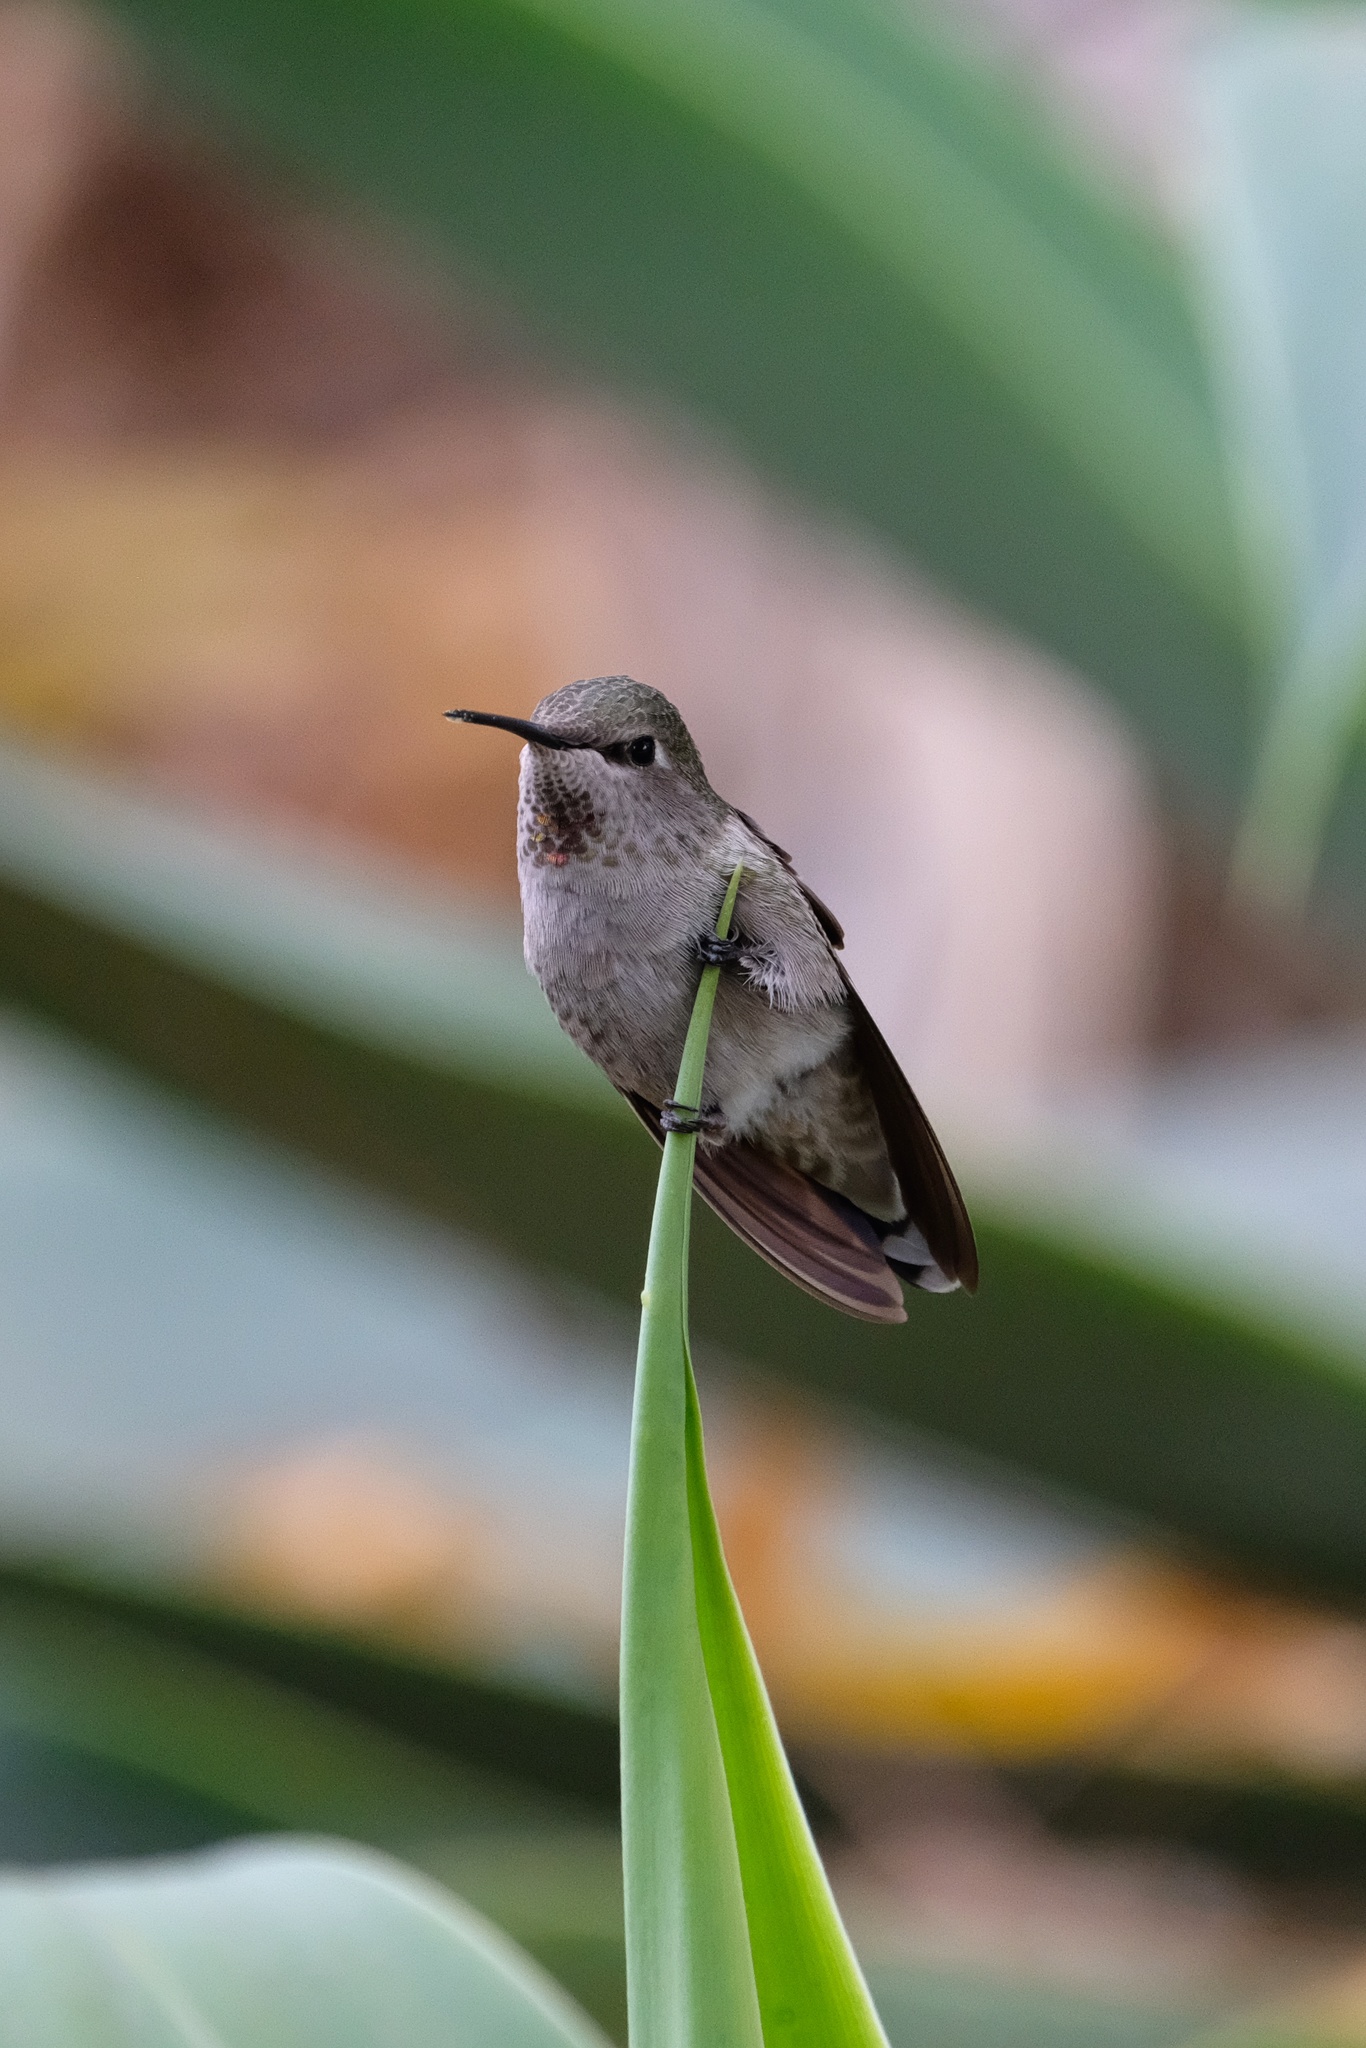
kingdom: Animalia
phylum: Chordata
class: Aves
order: Apodiformes
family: Trochilidae
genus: Calypte
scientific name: Calypte anna
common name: Anna's hummingbird
